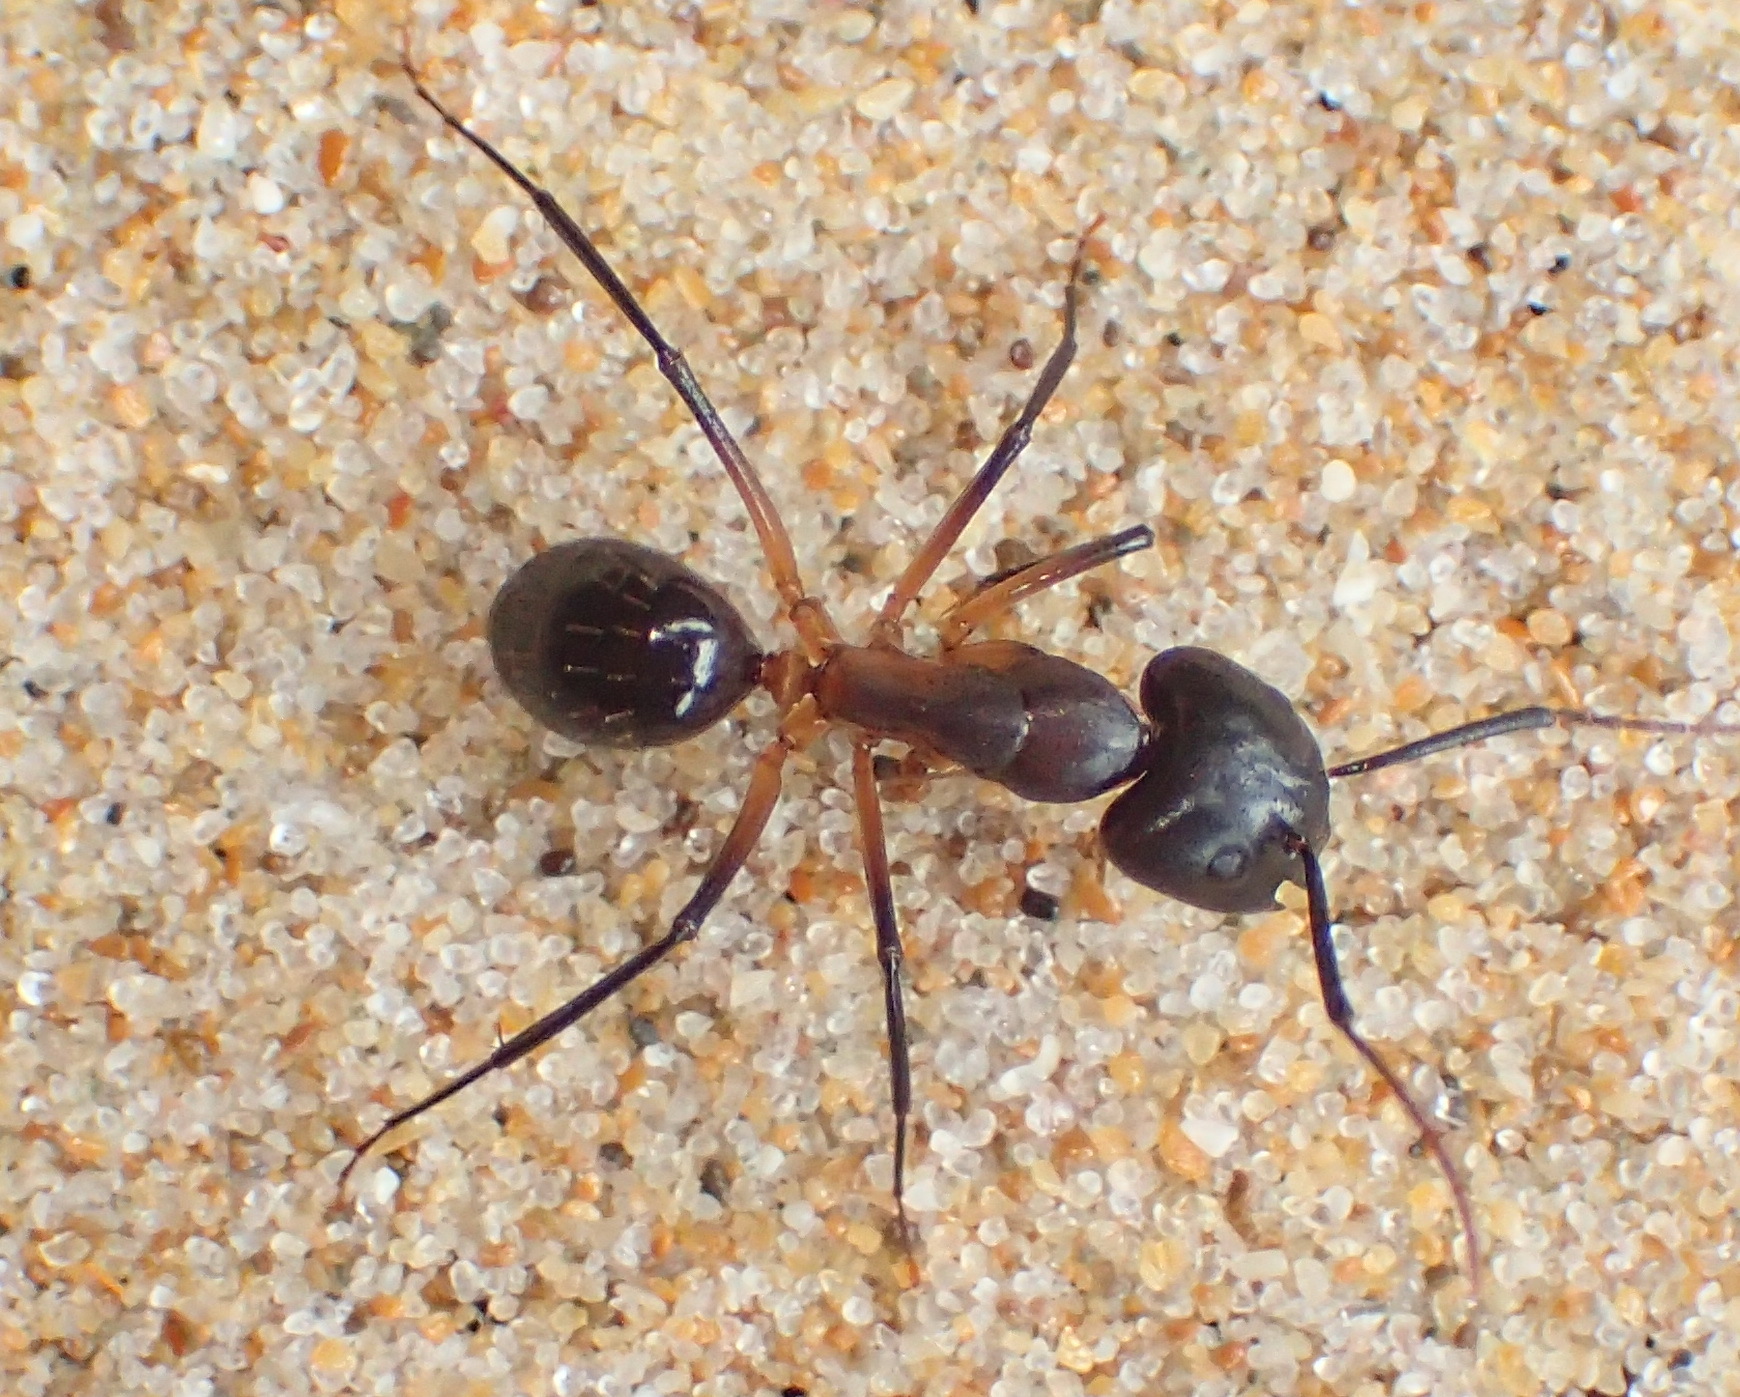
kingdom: Animalia
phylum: Arthropoda
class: Insecta
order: Hymenoptera
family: Formicidae
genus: Camponotus
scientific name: Camponotus baynei
